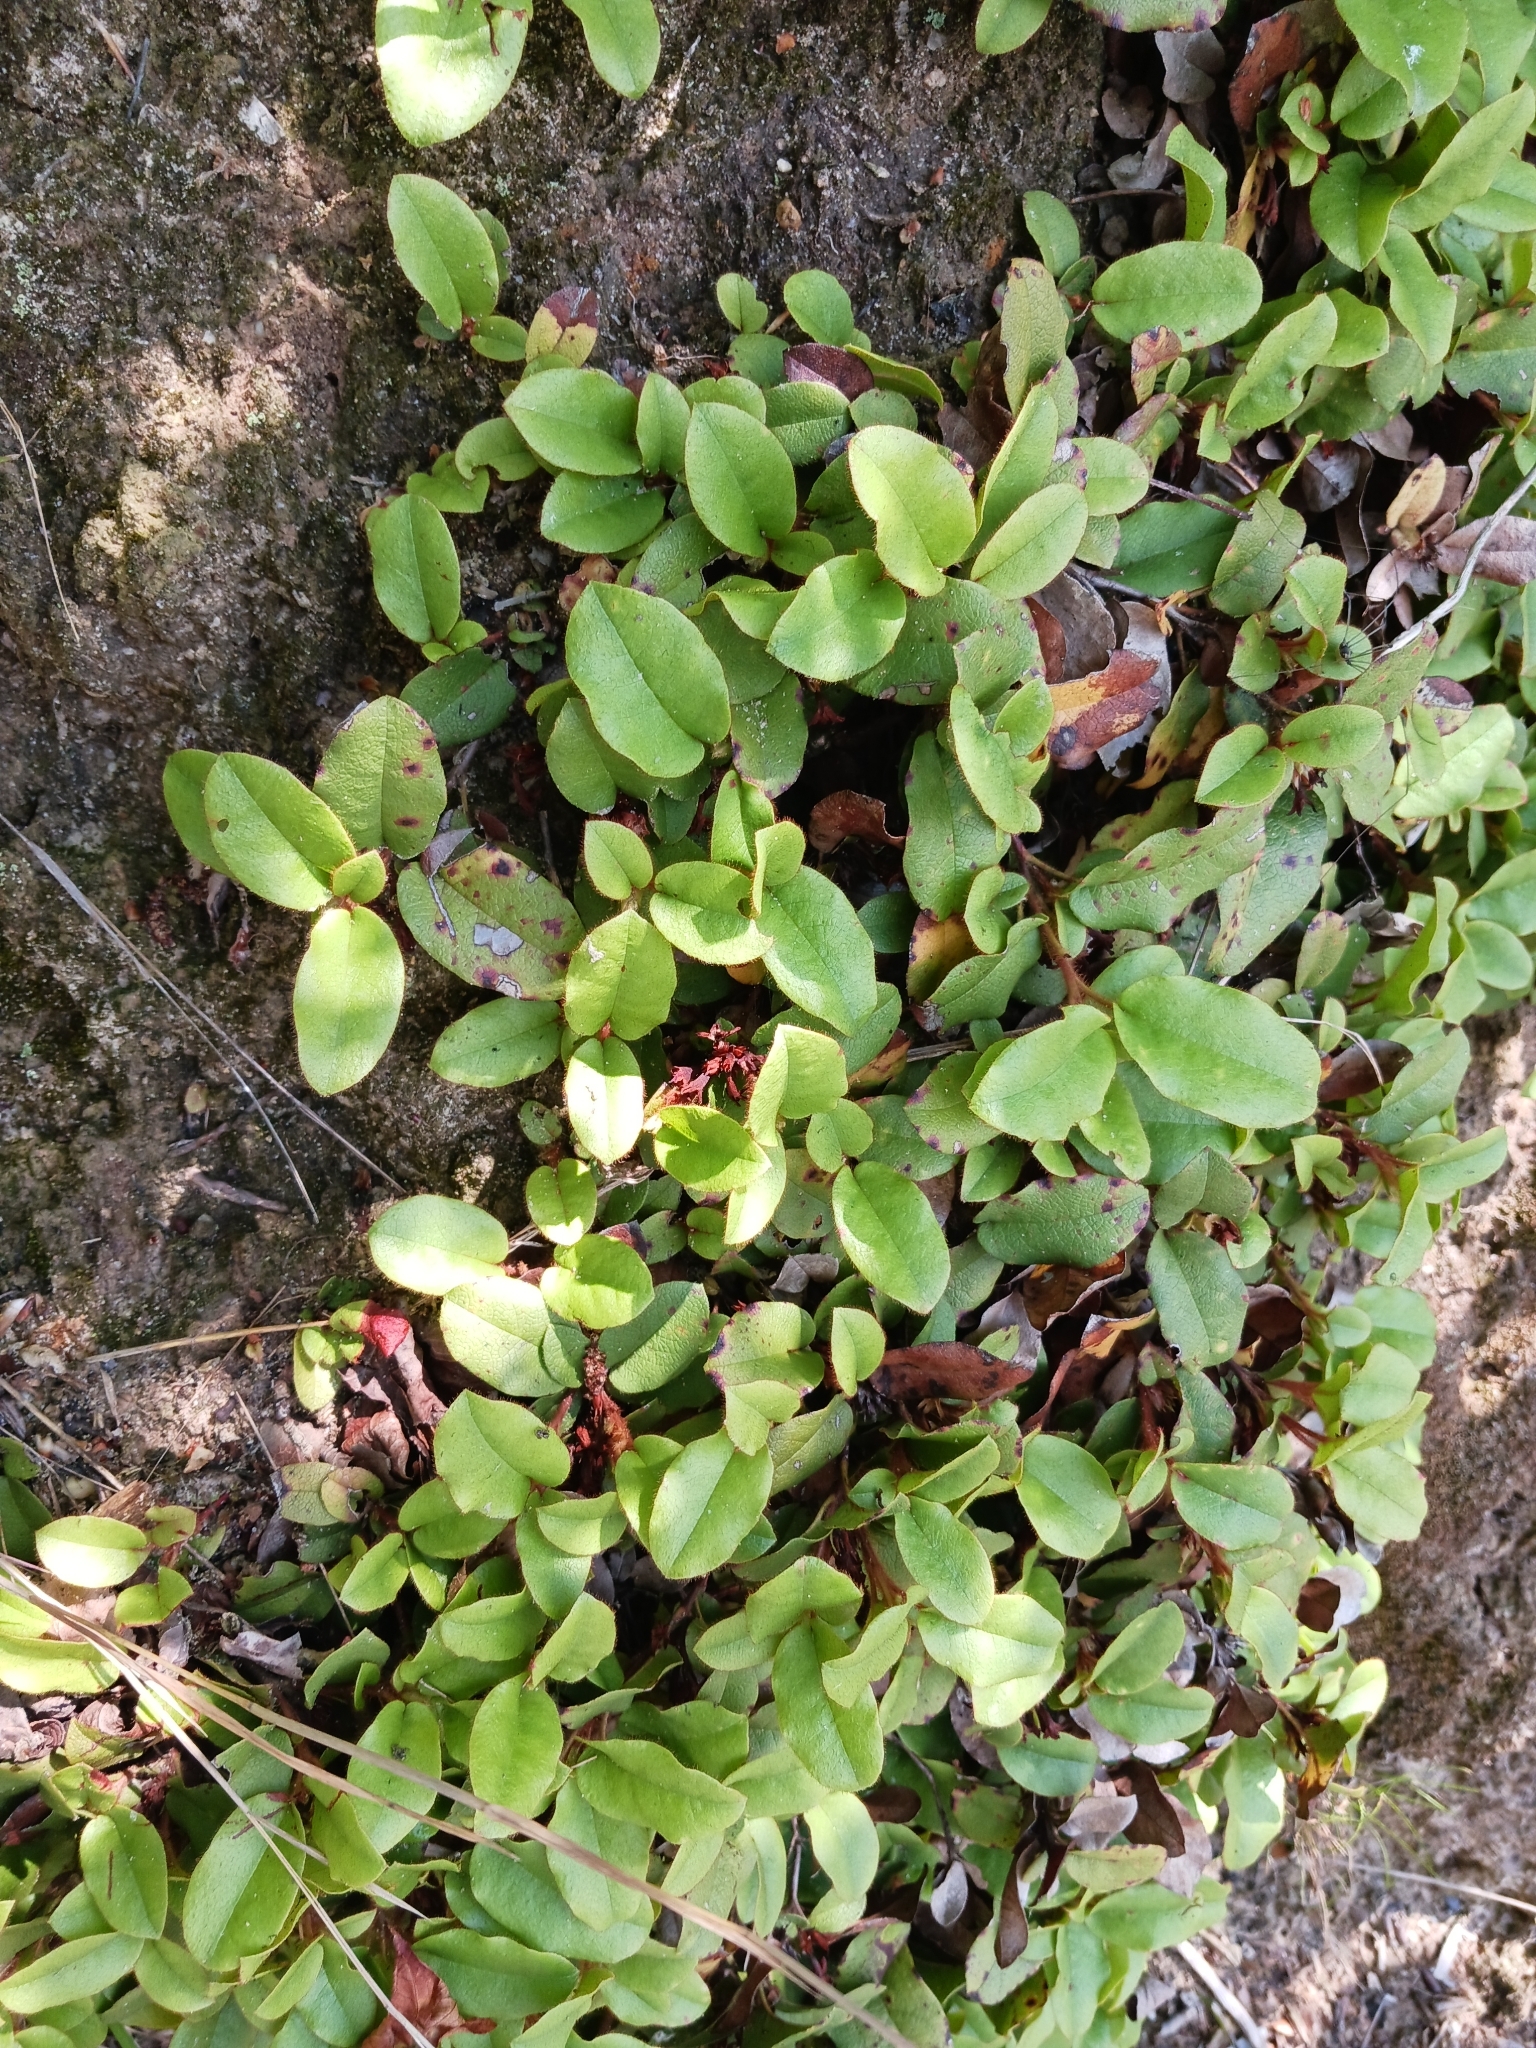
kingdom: Plantae
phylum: Tracheophyta
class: Magnoliopsida
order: Ericales
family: Ericaceae
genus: Epigaea
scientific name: Epigaea repens
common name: Gravelroot
